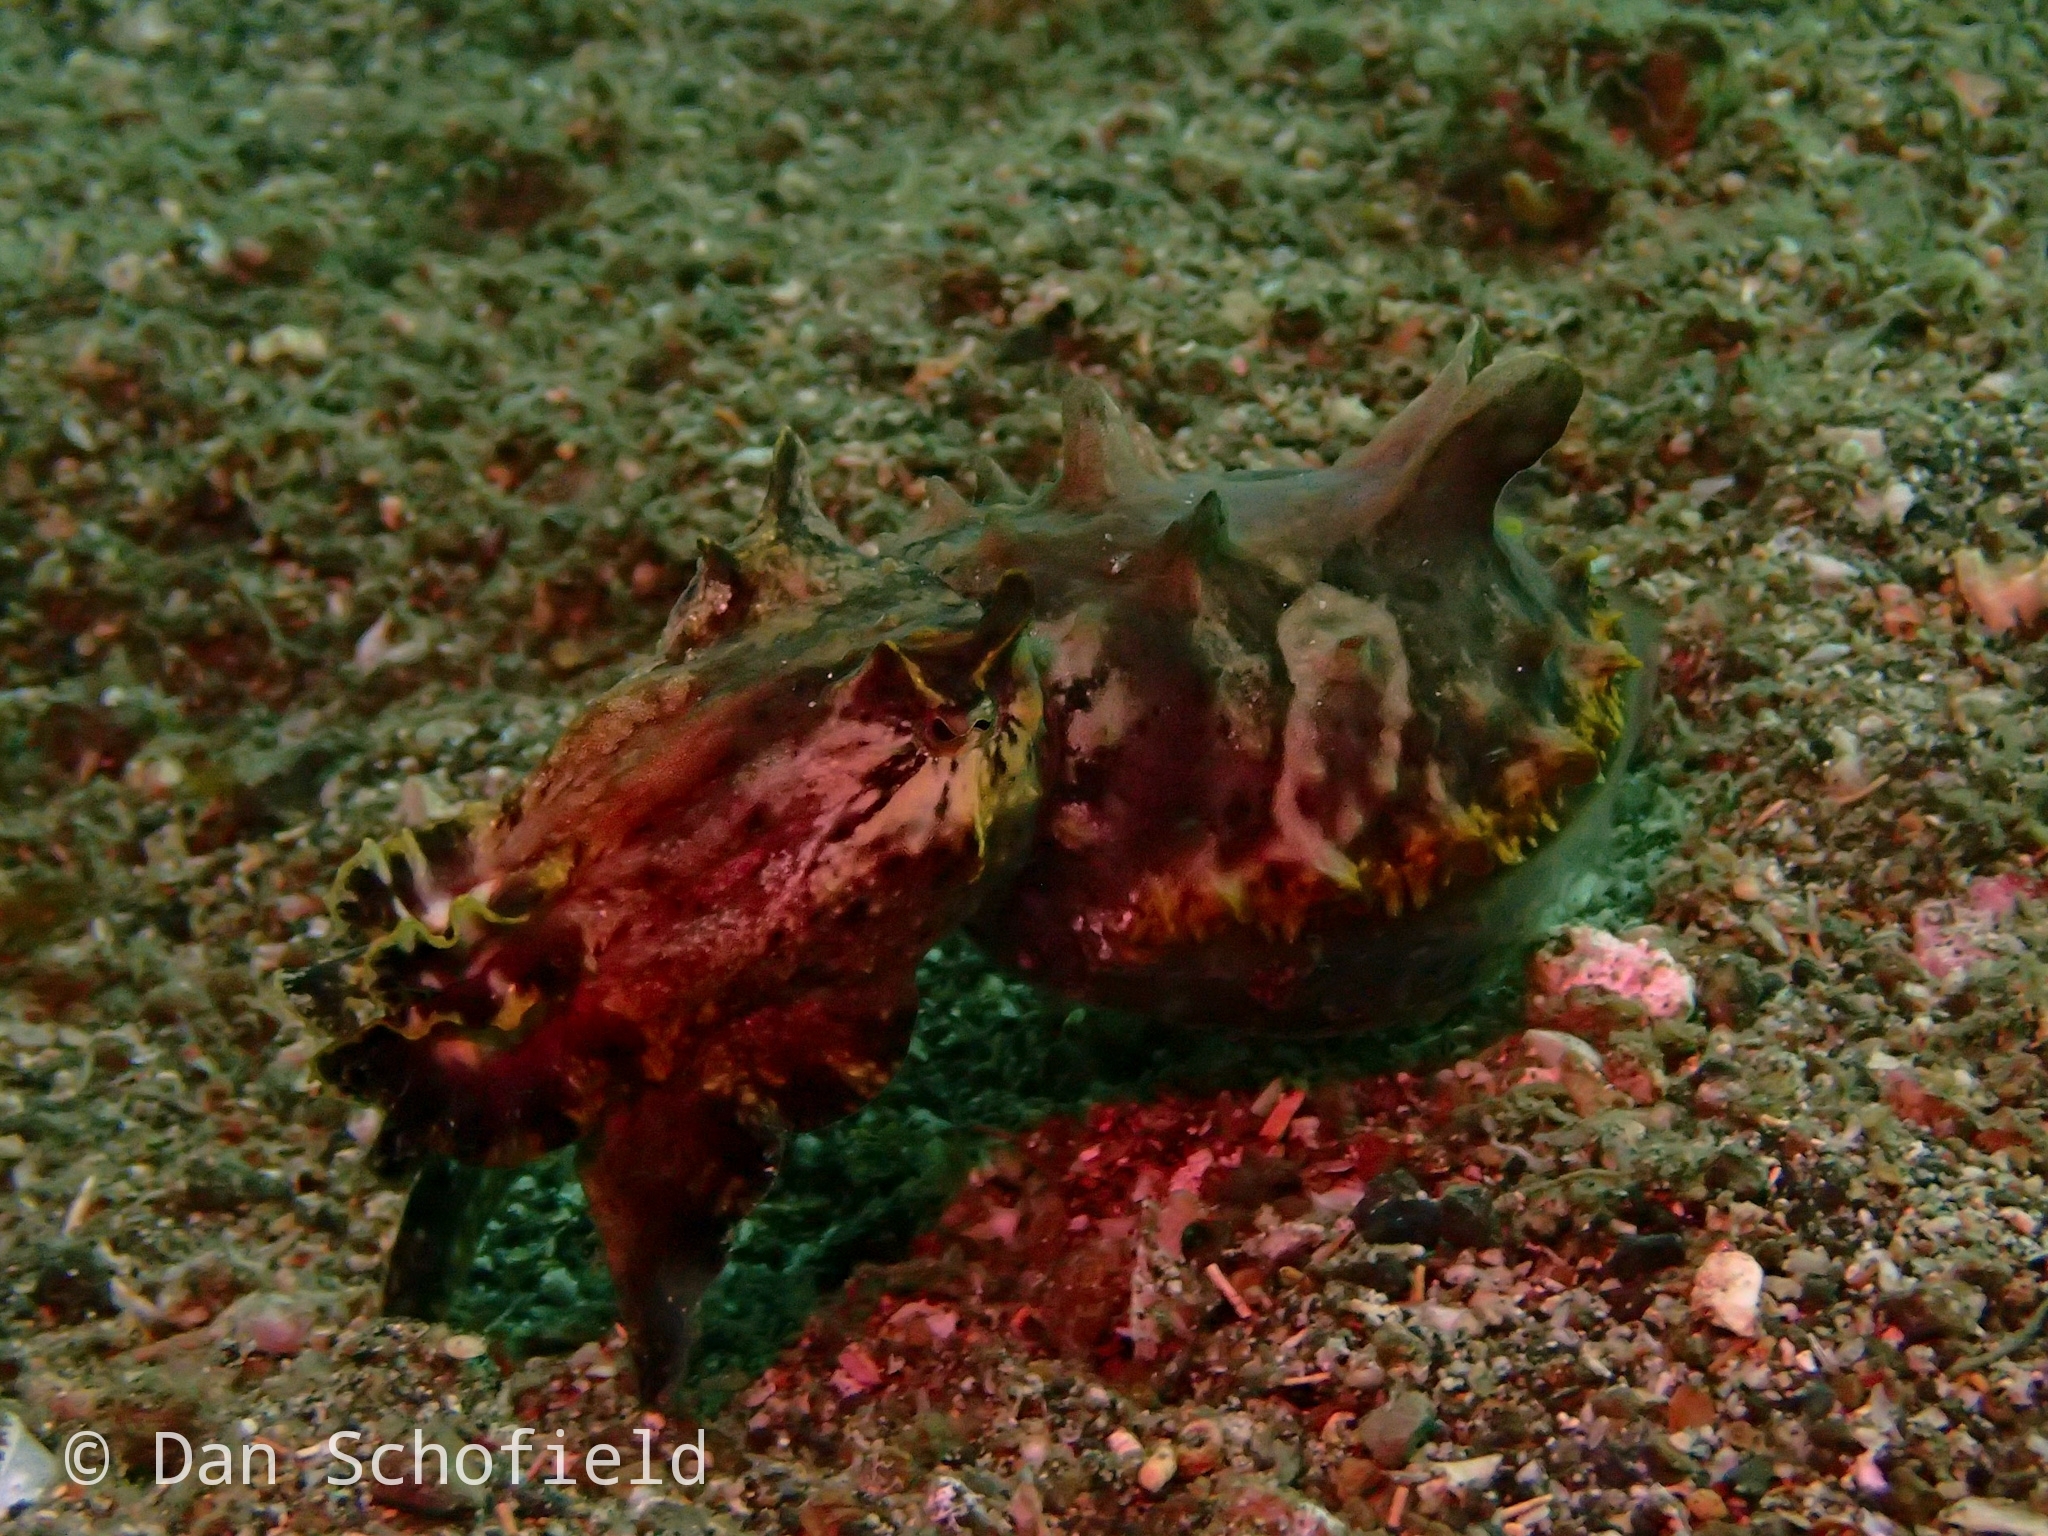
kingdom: Animalia
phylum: Mollusca
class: Cephalopoda
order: Sepiida
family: Sepiidae
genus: Ascarosepion
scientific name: Ascarosepion pfefferi
